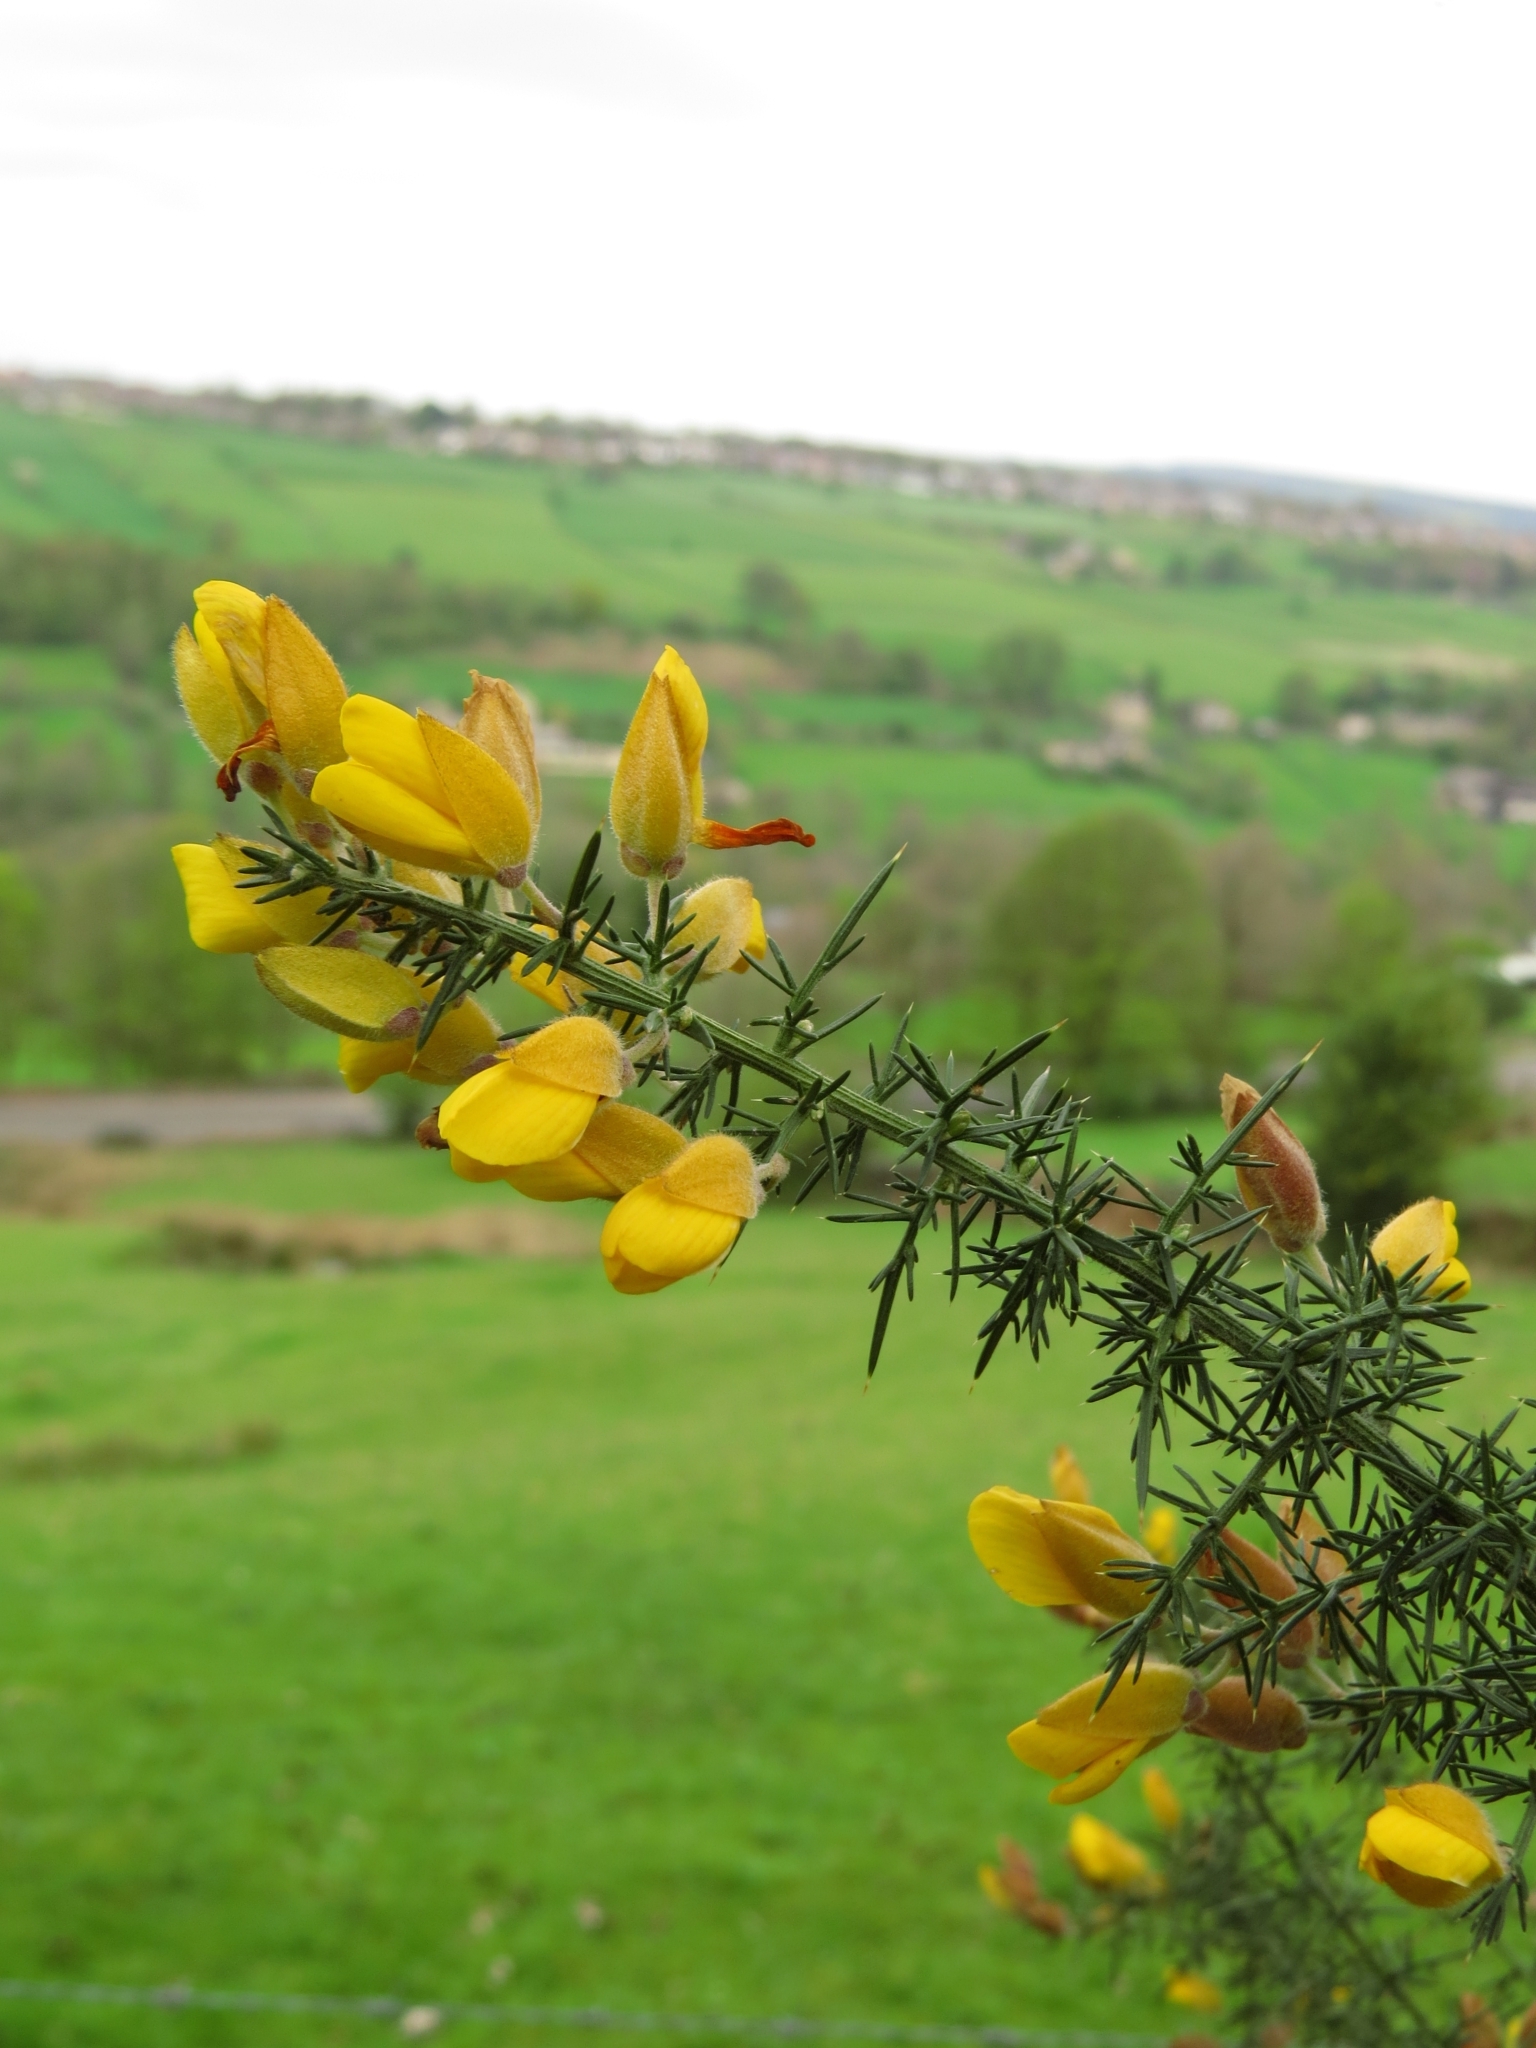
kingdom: Plantae
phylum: Tracheophyta
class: Magnoliopsida
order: Fabales
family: Fabaceae
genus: Ulex
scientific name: Ulex europaeus
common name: Common gorse
